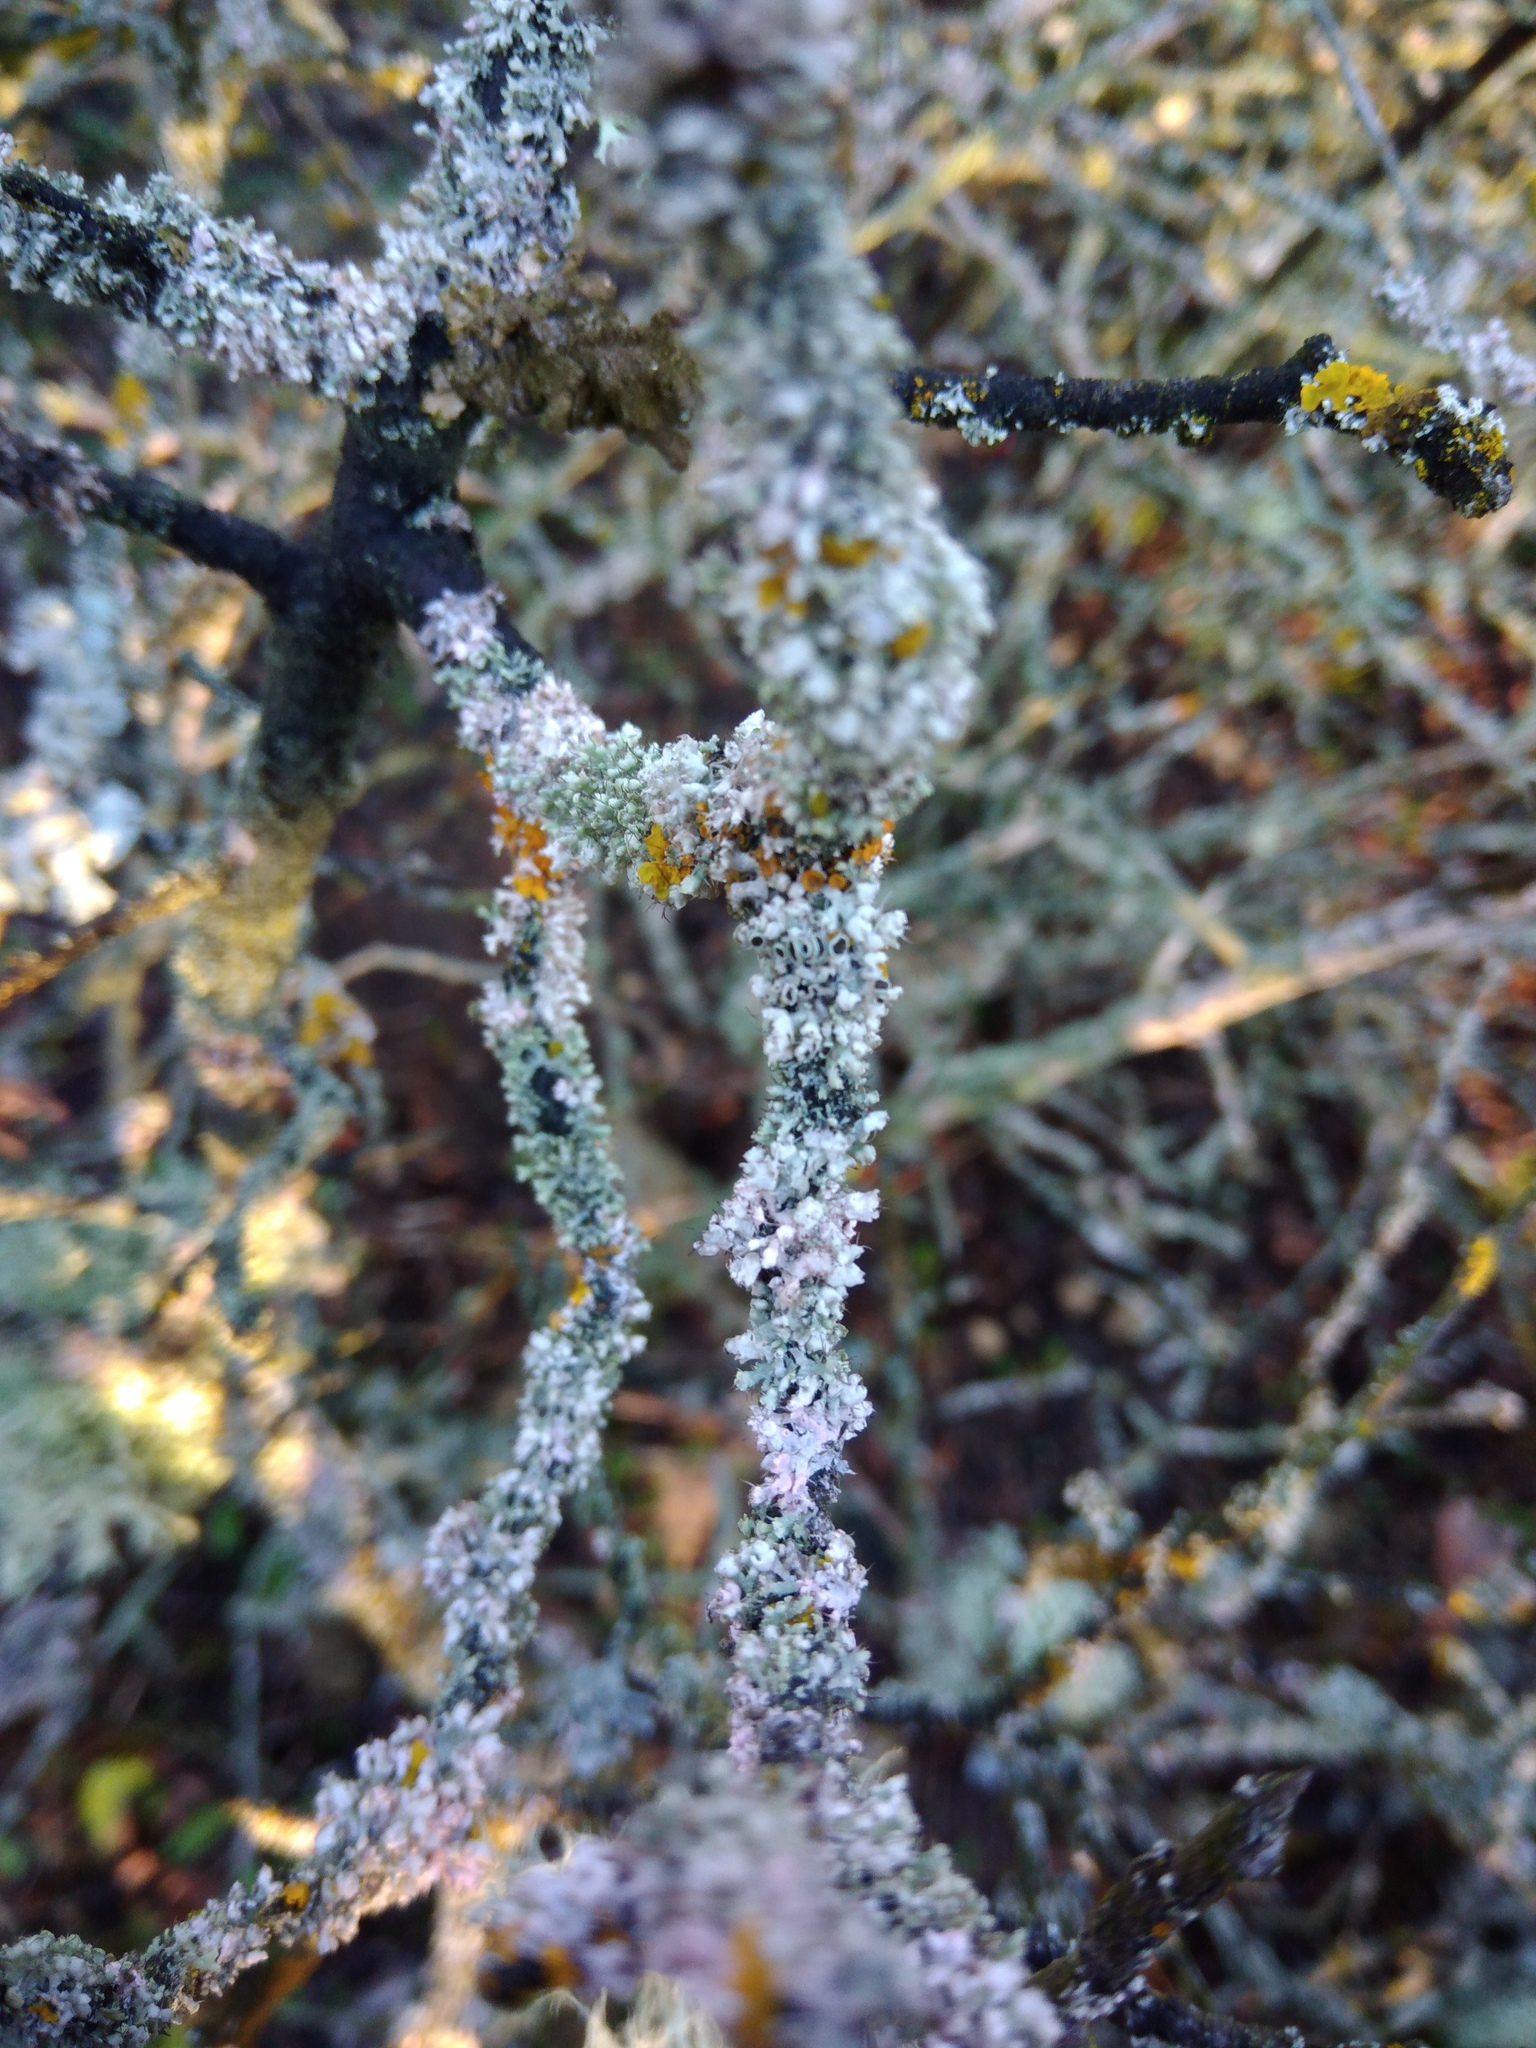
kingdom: Fungi
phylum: Ascomycota
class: Lecanoromycetes
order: Caliciales
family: Physciaceae
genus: Physcia
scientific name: Physcia adscendens
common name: Hooded rosette lichen
